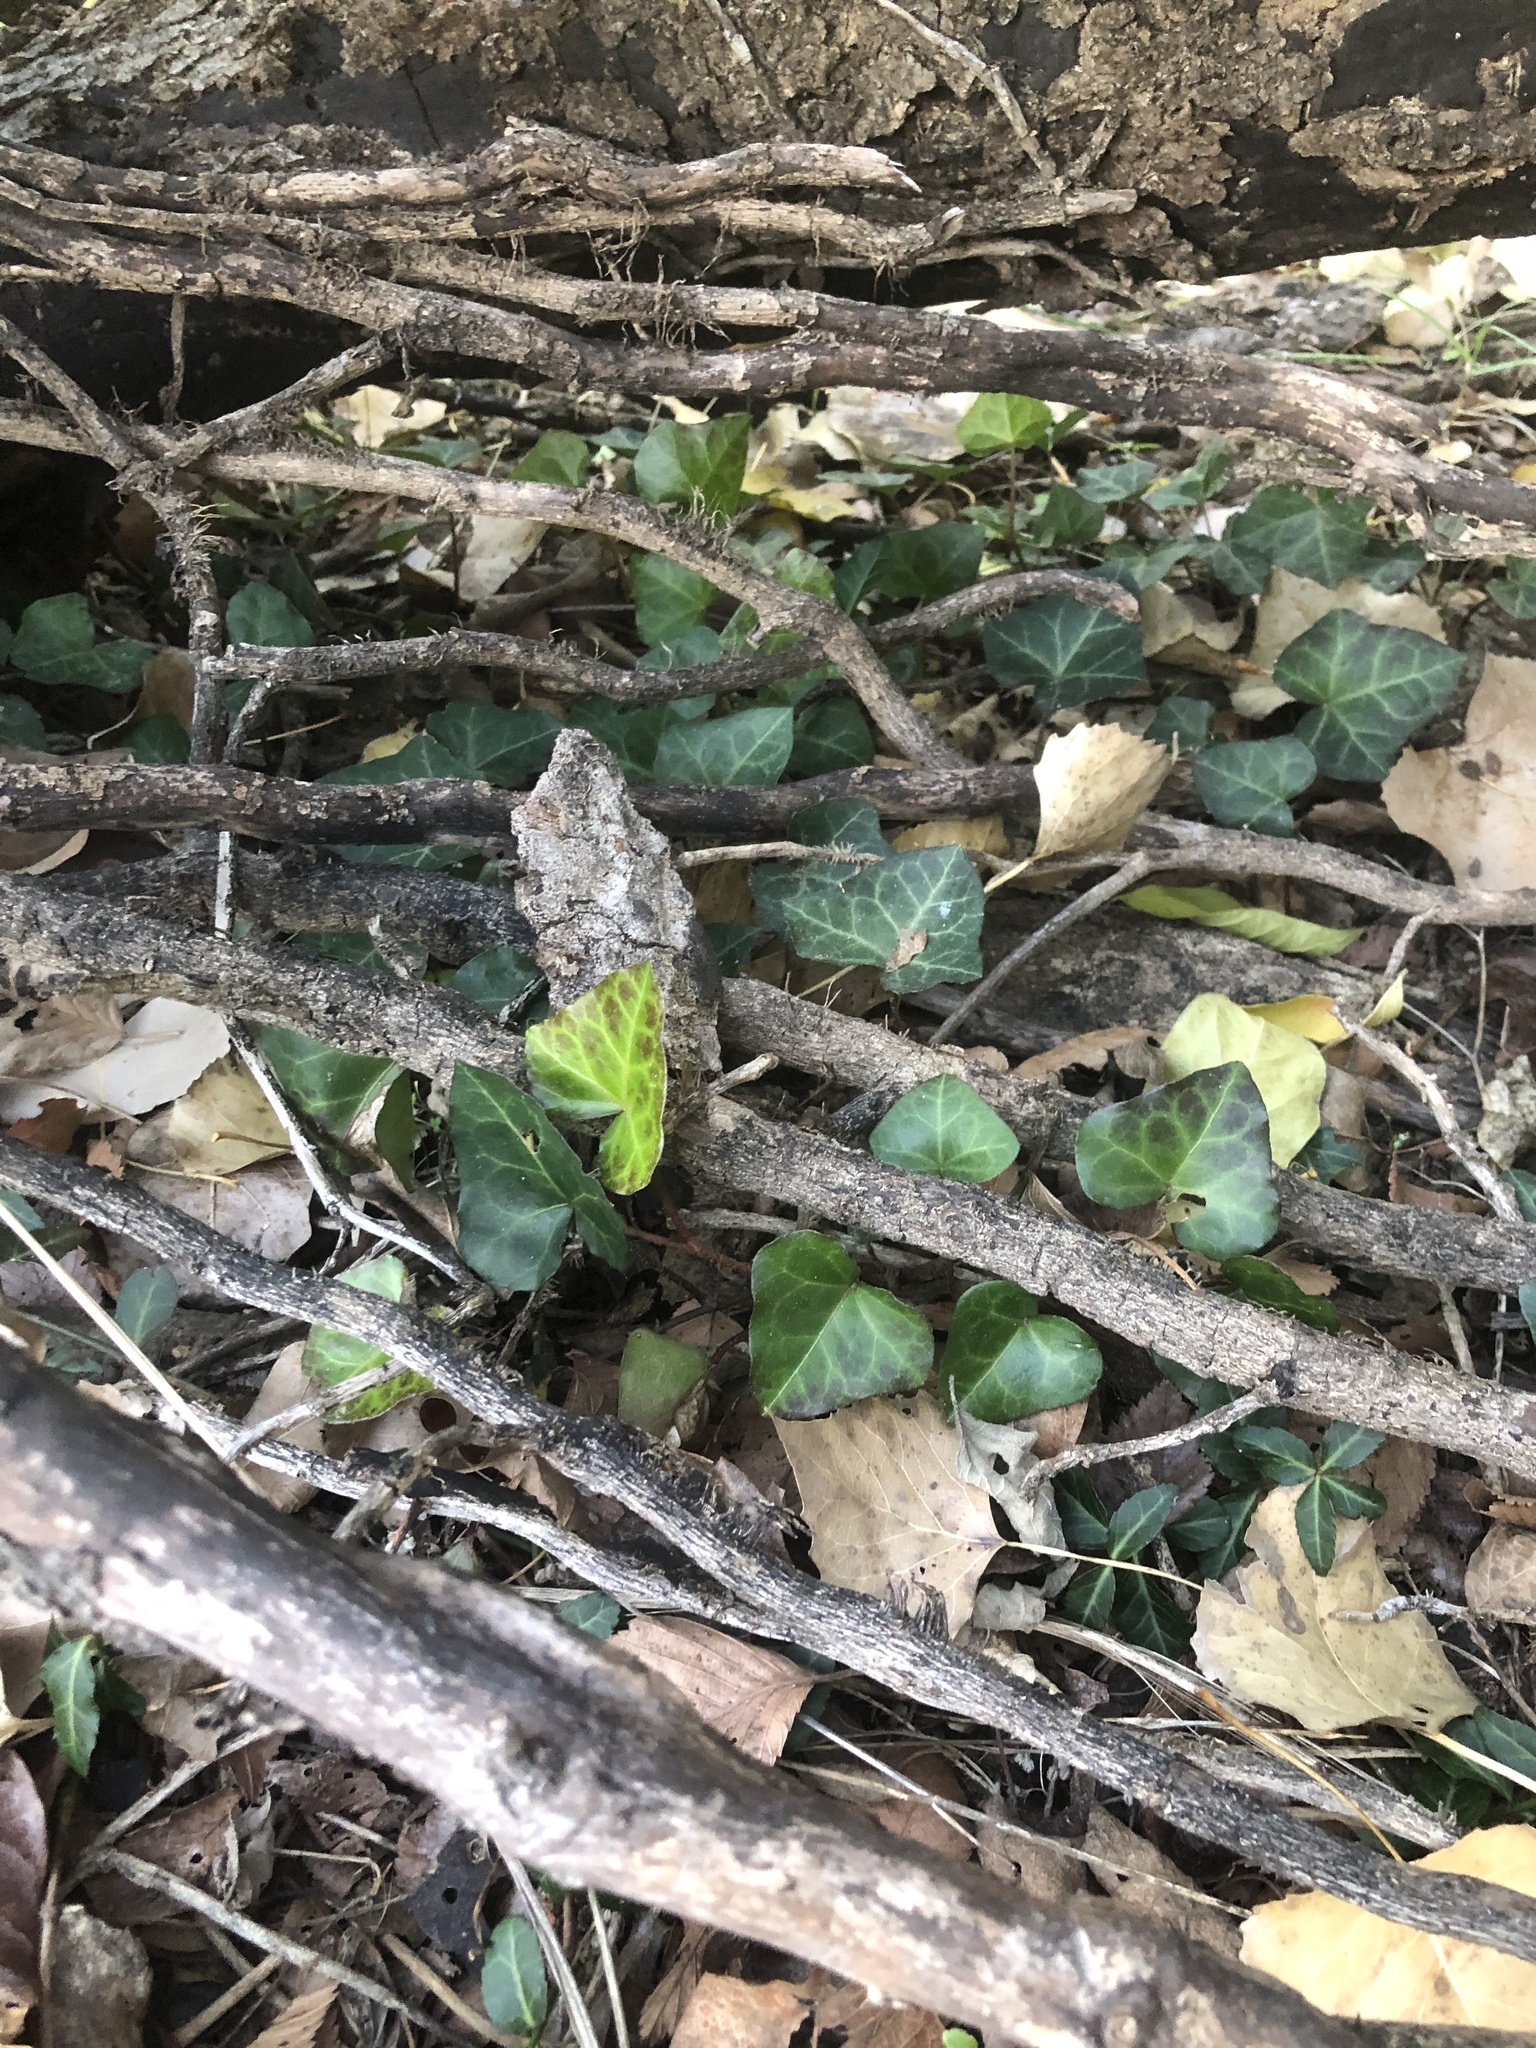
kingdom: Plantae
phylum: Tracheophyta
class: Magnoliopsida
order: Apiales
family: Araliaceae
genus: Hedera
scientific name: Hedera helix
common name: Ivy
